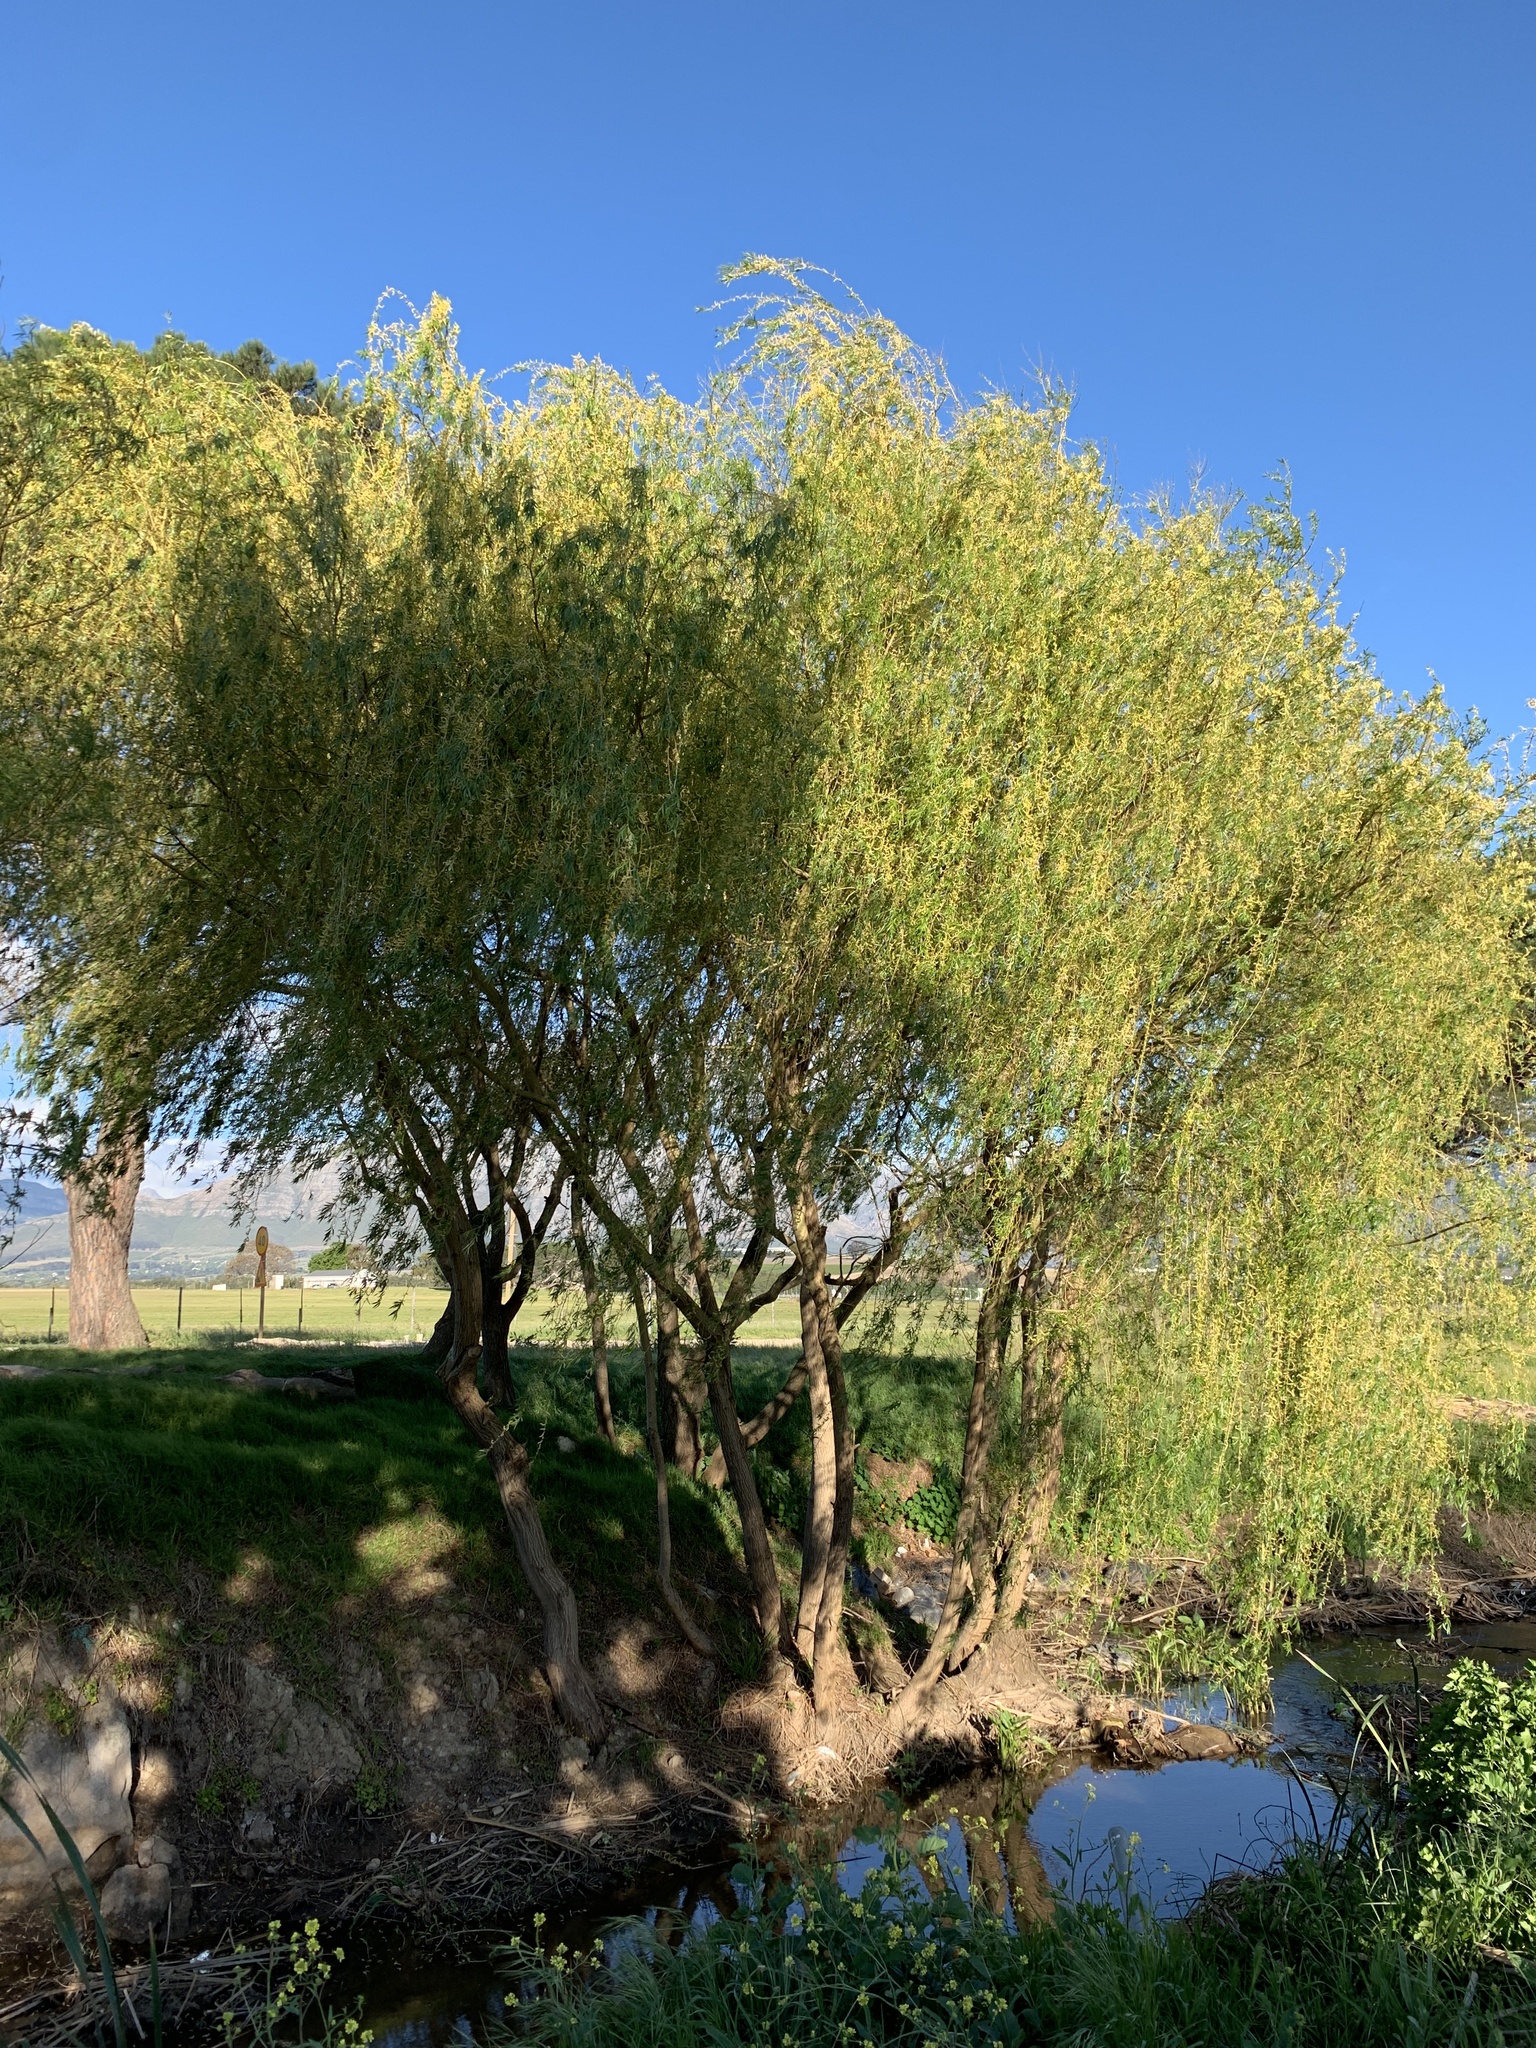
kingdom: Plantae
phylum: Tracheophyta
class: Magnoliopsida
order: Malpighiales
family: Salicaceae
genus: Salix
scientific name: Salix babylonica
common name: Weeping willow
